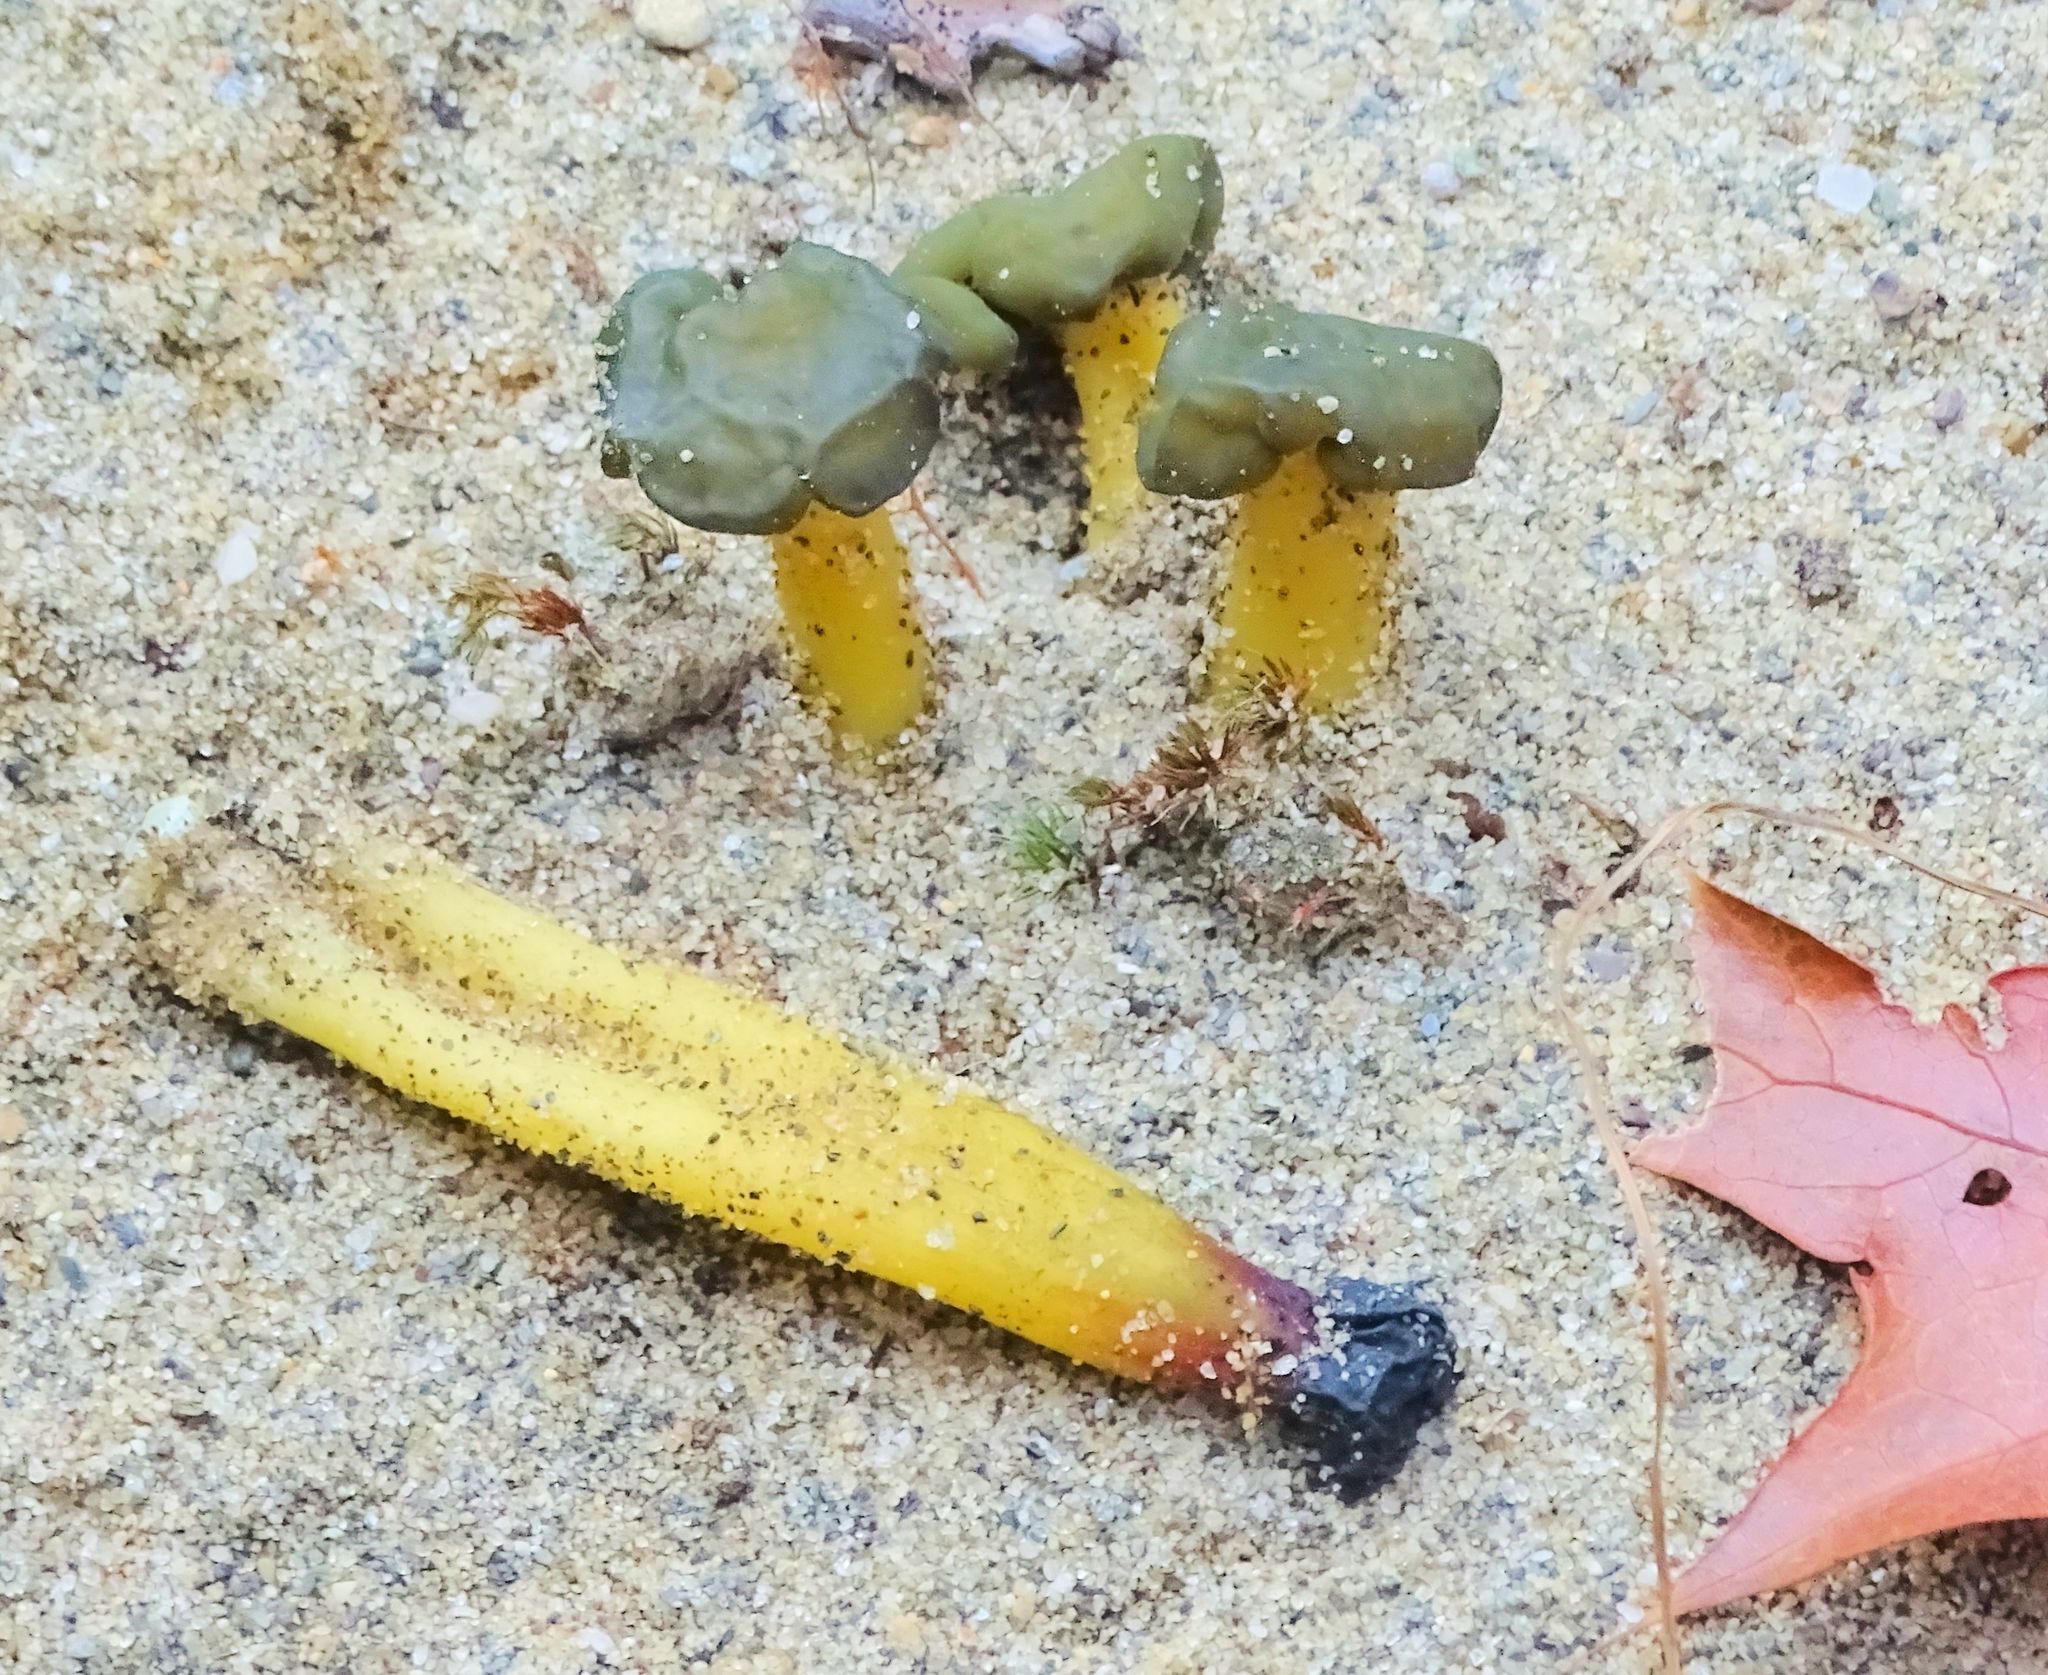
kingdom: Fungi
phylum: Ascomycota
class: Leotiomycetes
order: Leotiales
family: Leotiaceae
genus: Leotia
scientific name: Leotia lubrica
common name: Jellybaby
